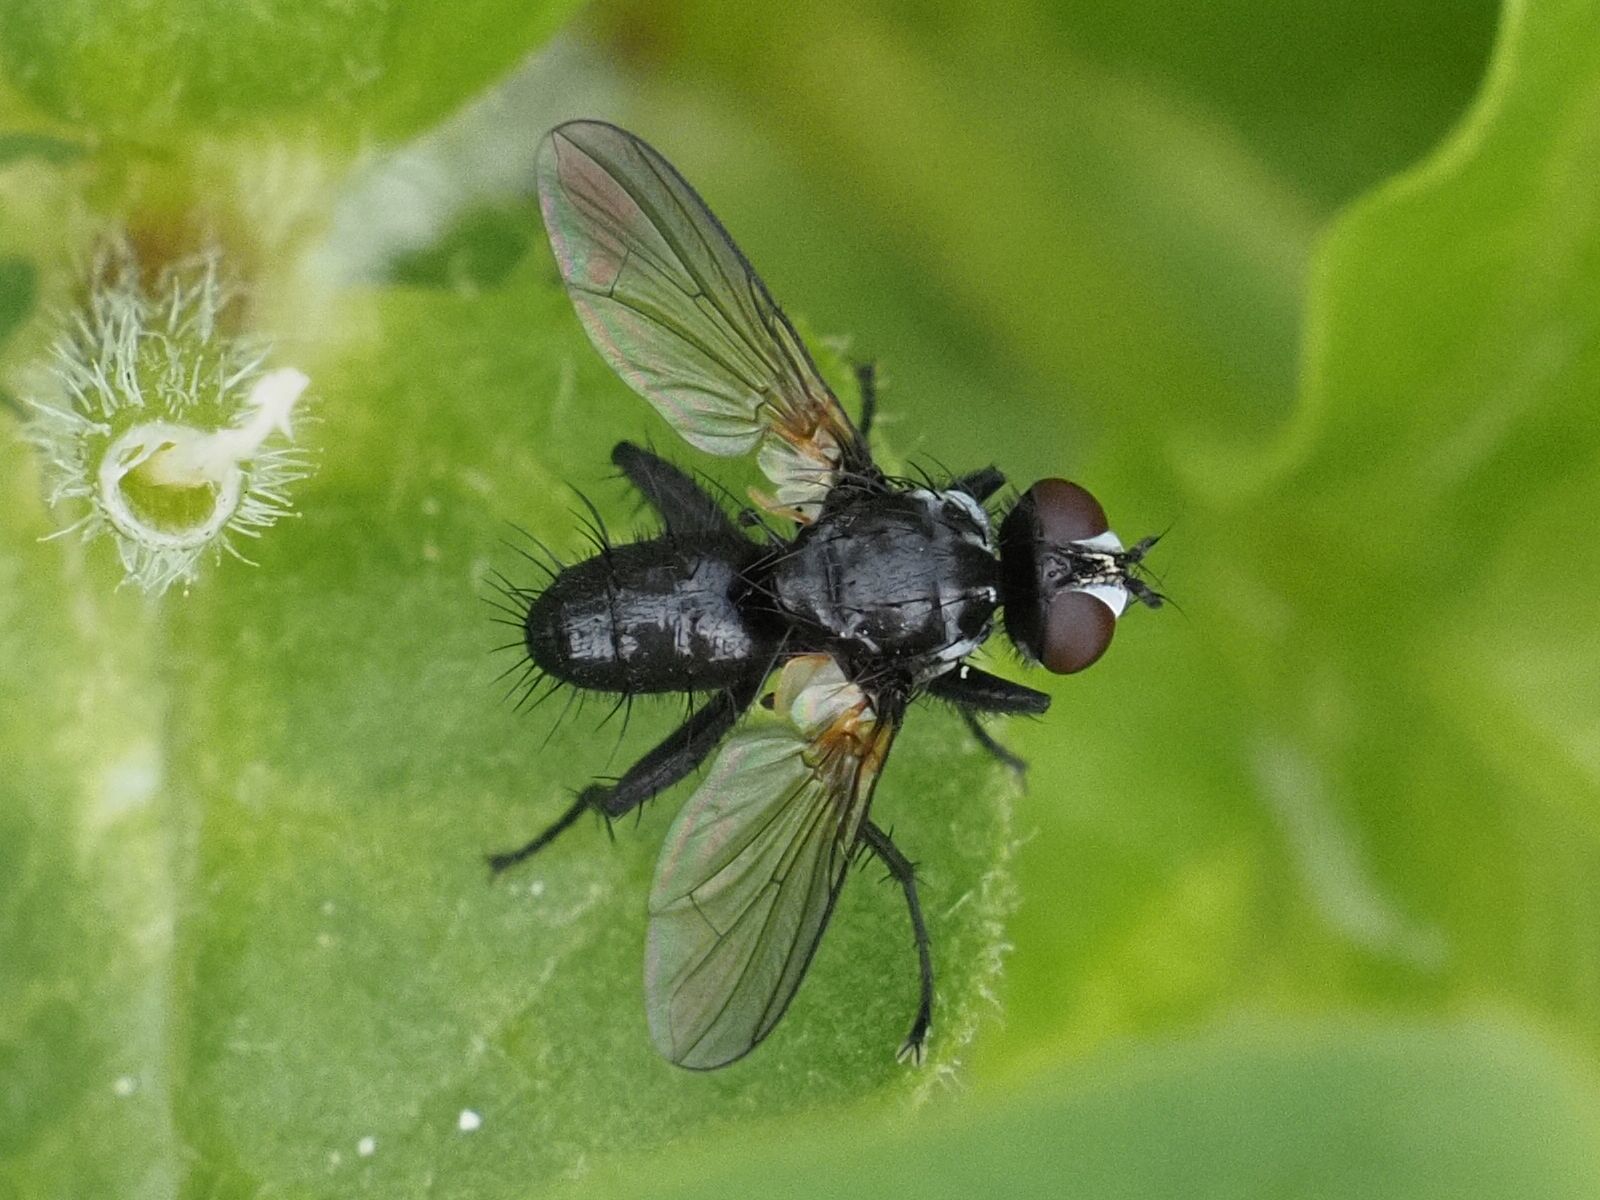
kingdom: Animalia
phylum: Arthropoda
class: Insecta
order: Diptera
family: Tachinidae
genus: Phania
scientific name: Phania funesta
